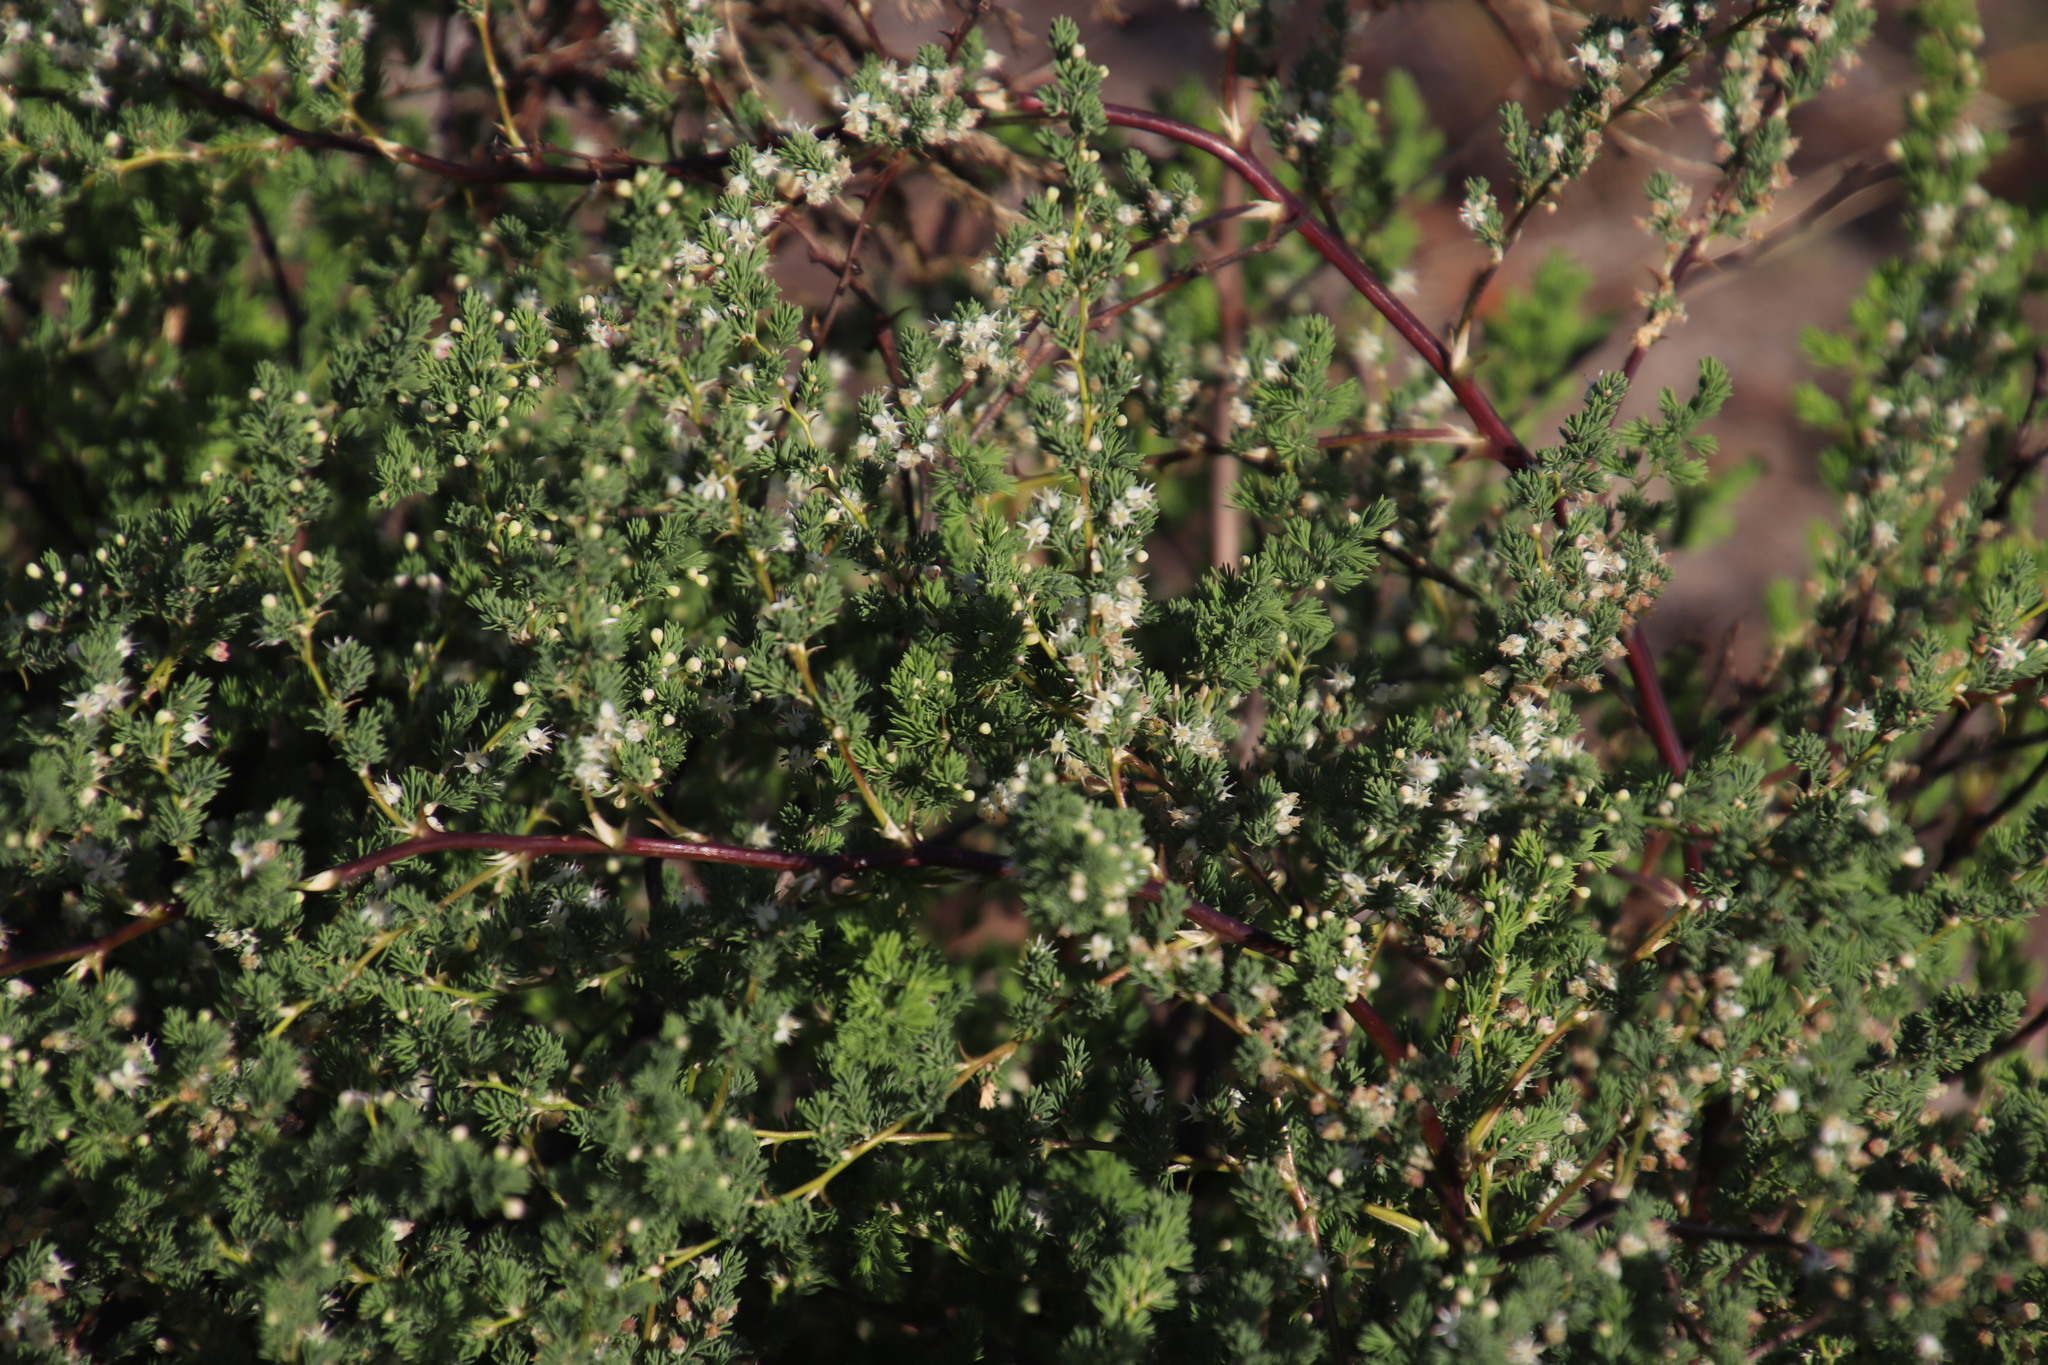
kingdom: Plantae
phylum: Tracheophyta
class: Liliopsida
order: Asparagales
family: Asparagaceae
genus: Asparagus
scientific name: Asparagus rubicundus
